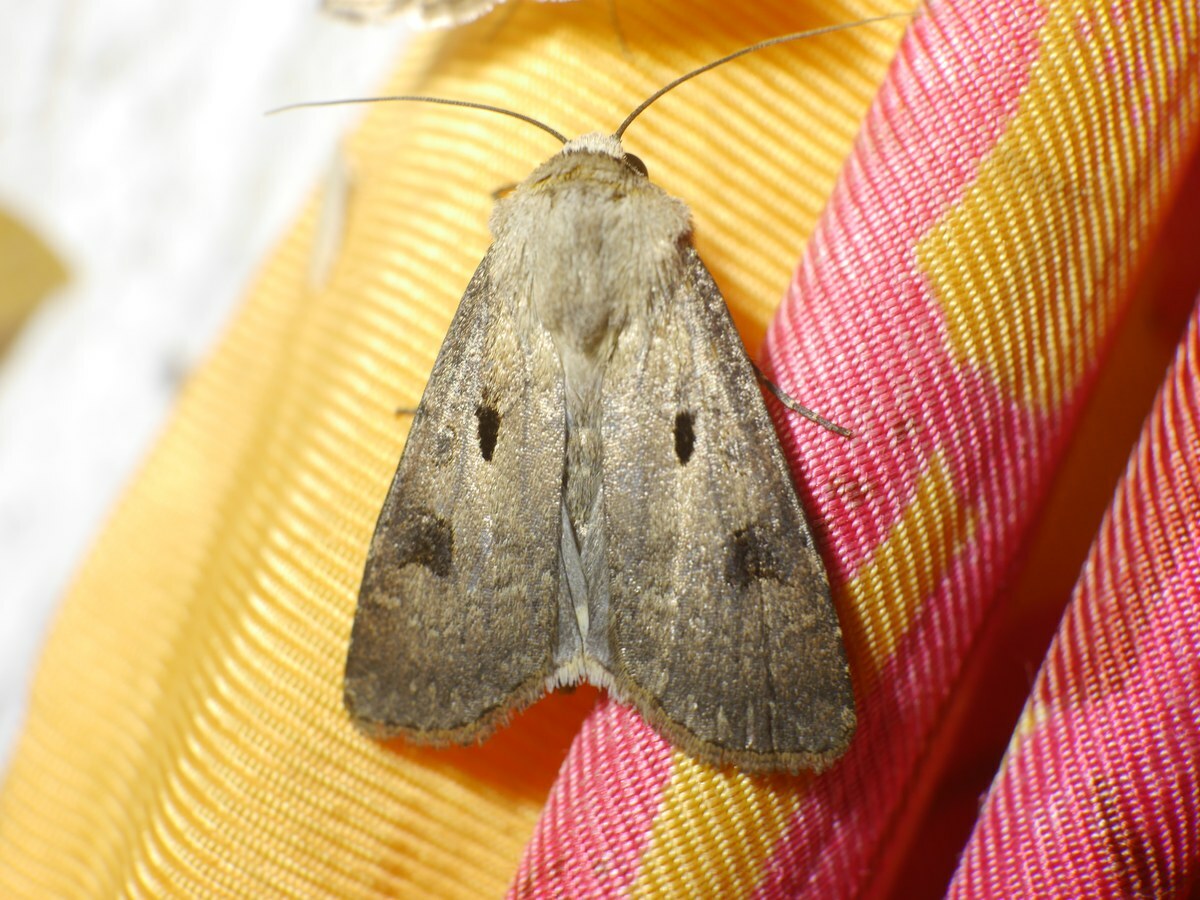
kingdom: Animalia
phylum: Arthropoda
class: Insecta
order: Lepidoptera
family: Noctuidae
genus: Agrotis
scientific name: Agrotis exclamationis
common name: Heart and dart
